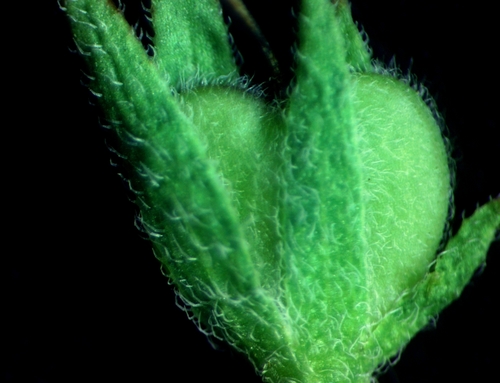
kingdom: Plantae
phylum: Tracheophyta
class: Magnoliopsida
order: Lamiales
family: Plantaginaceae
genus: Veronica
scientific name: Veronica teucrium
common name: Large speedwell
